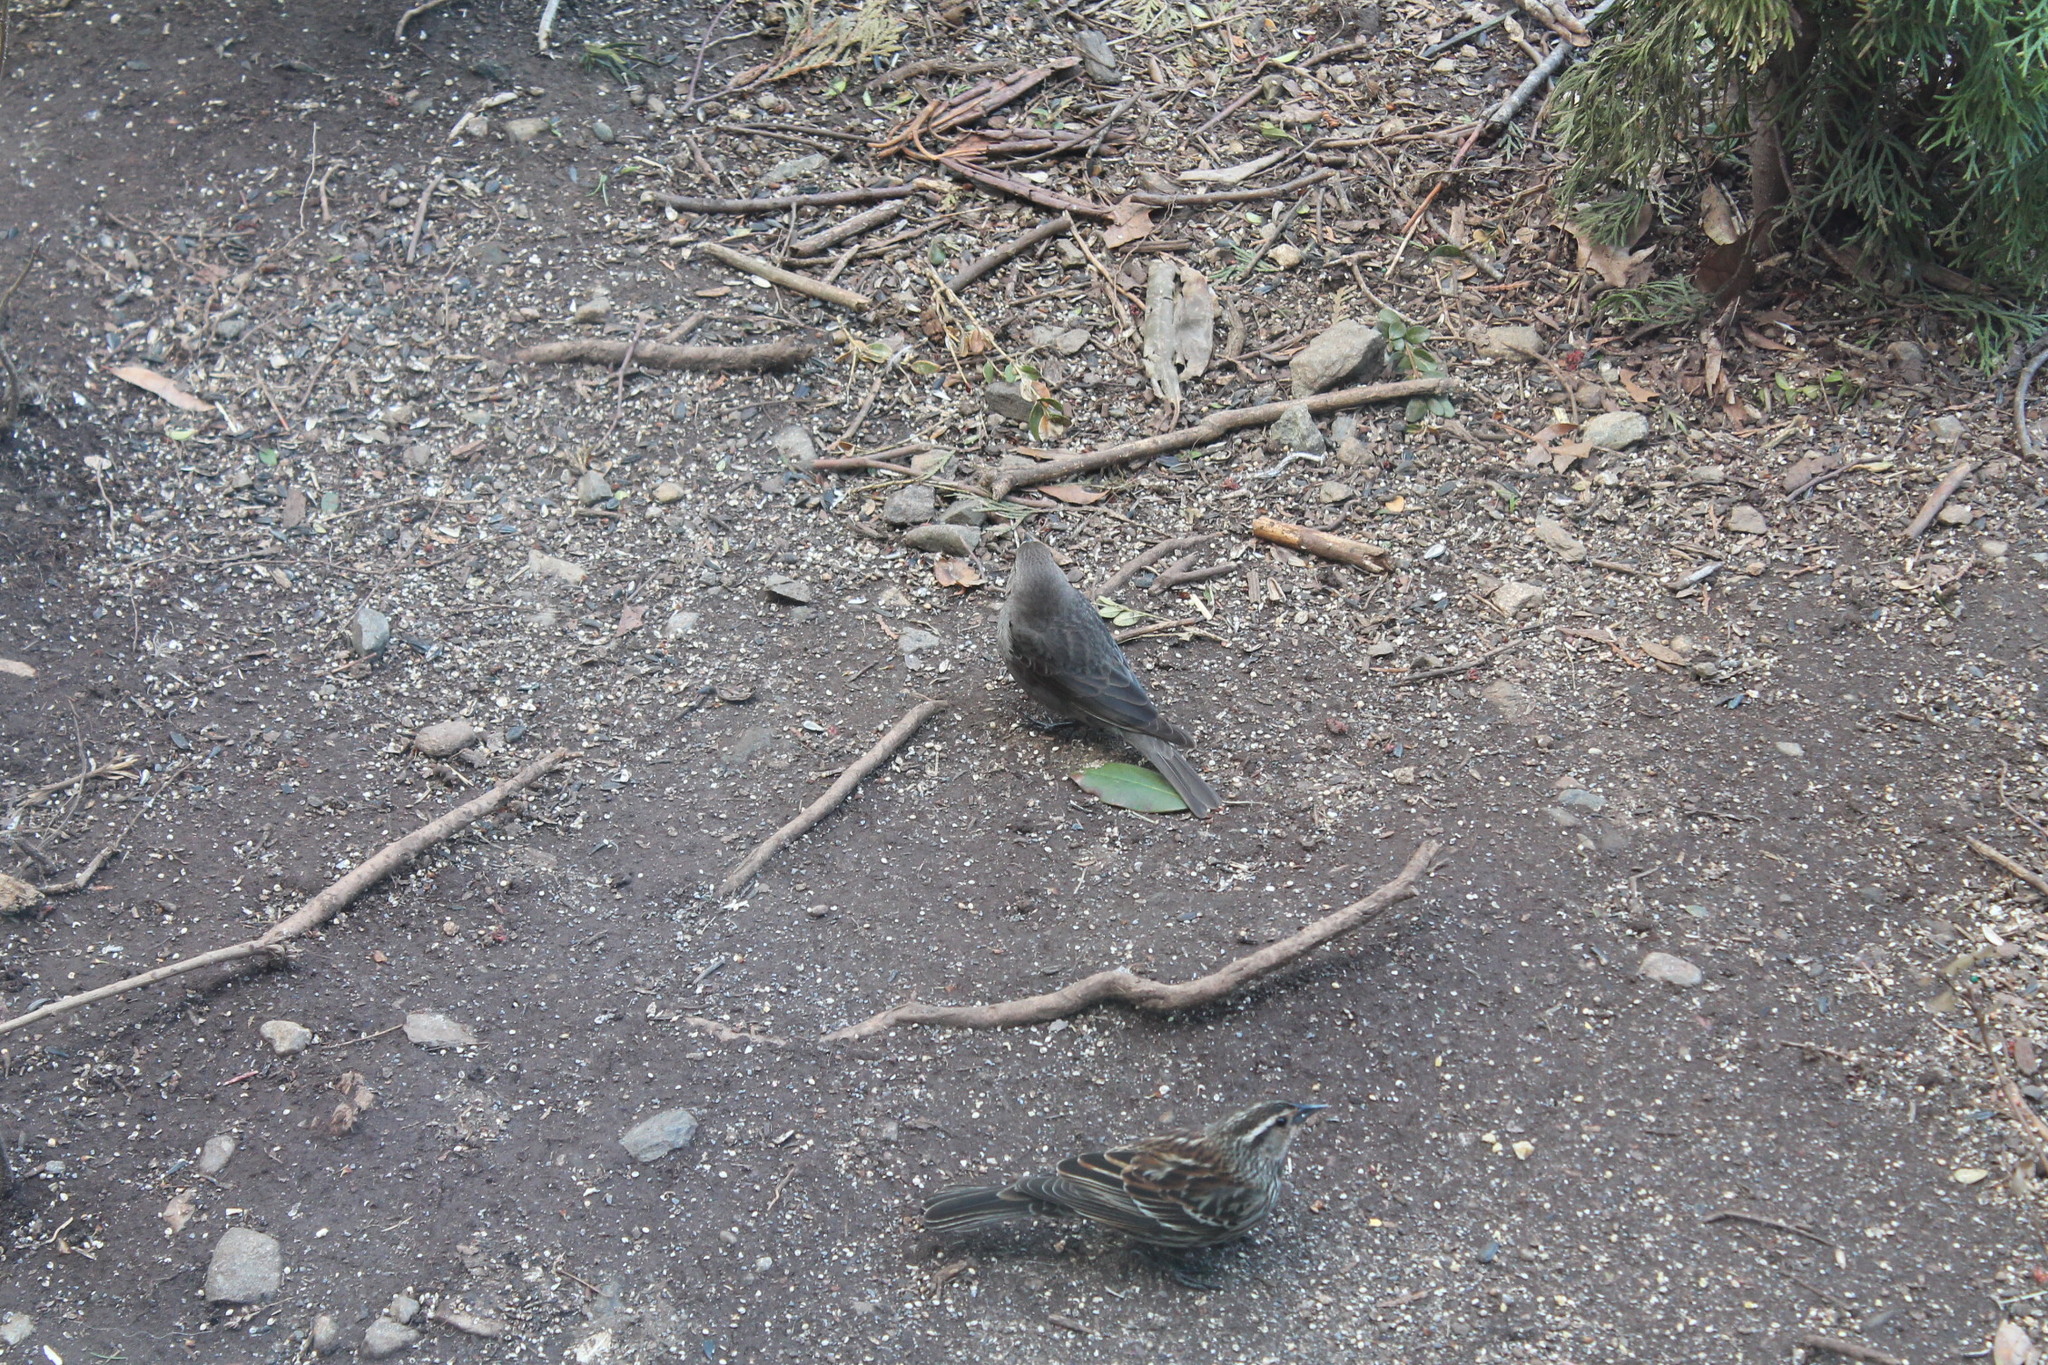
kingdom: Animalia
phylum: Chordata
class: Aves
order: Passeriformes
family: Icteridae
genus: Molothrus
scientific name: Molothrus ater
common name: Brown-headed cowbird
